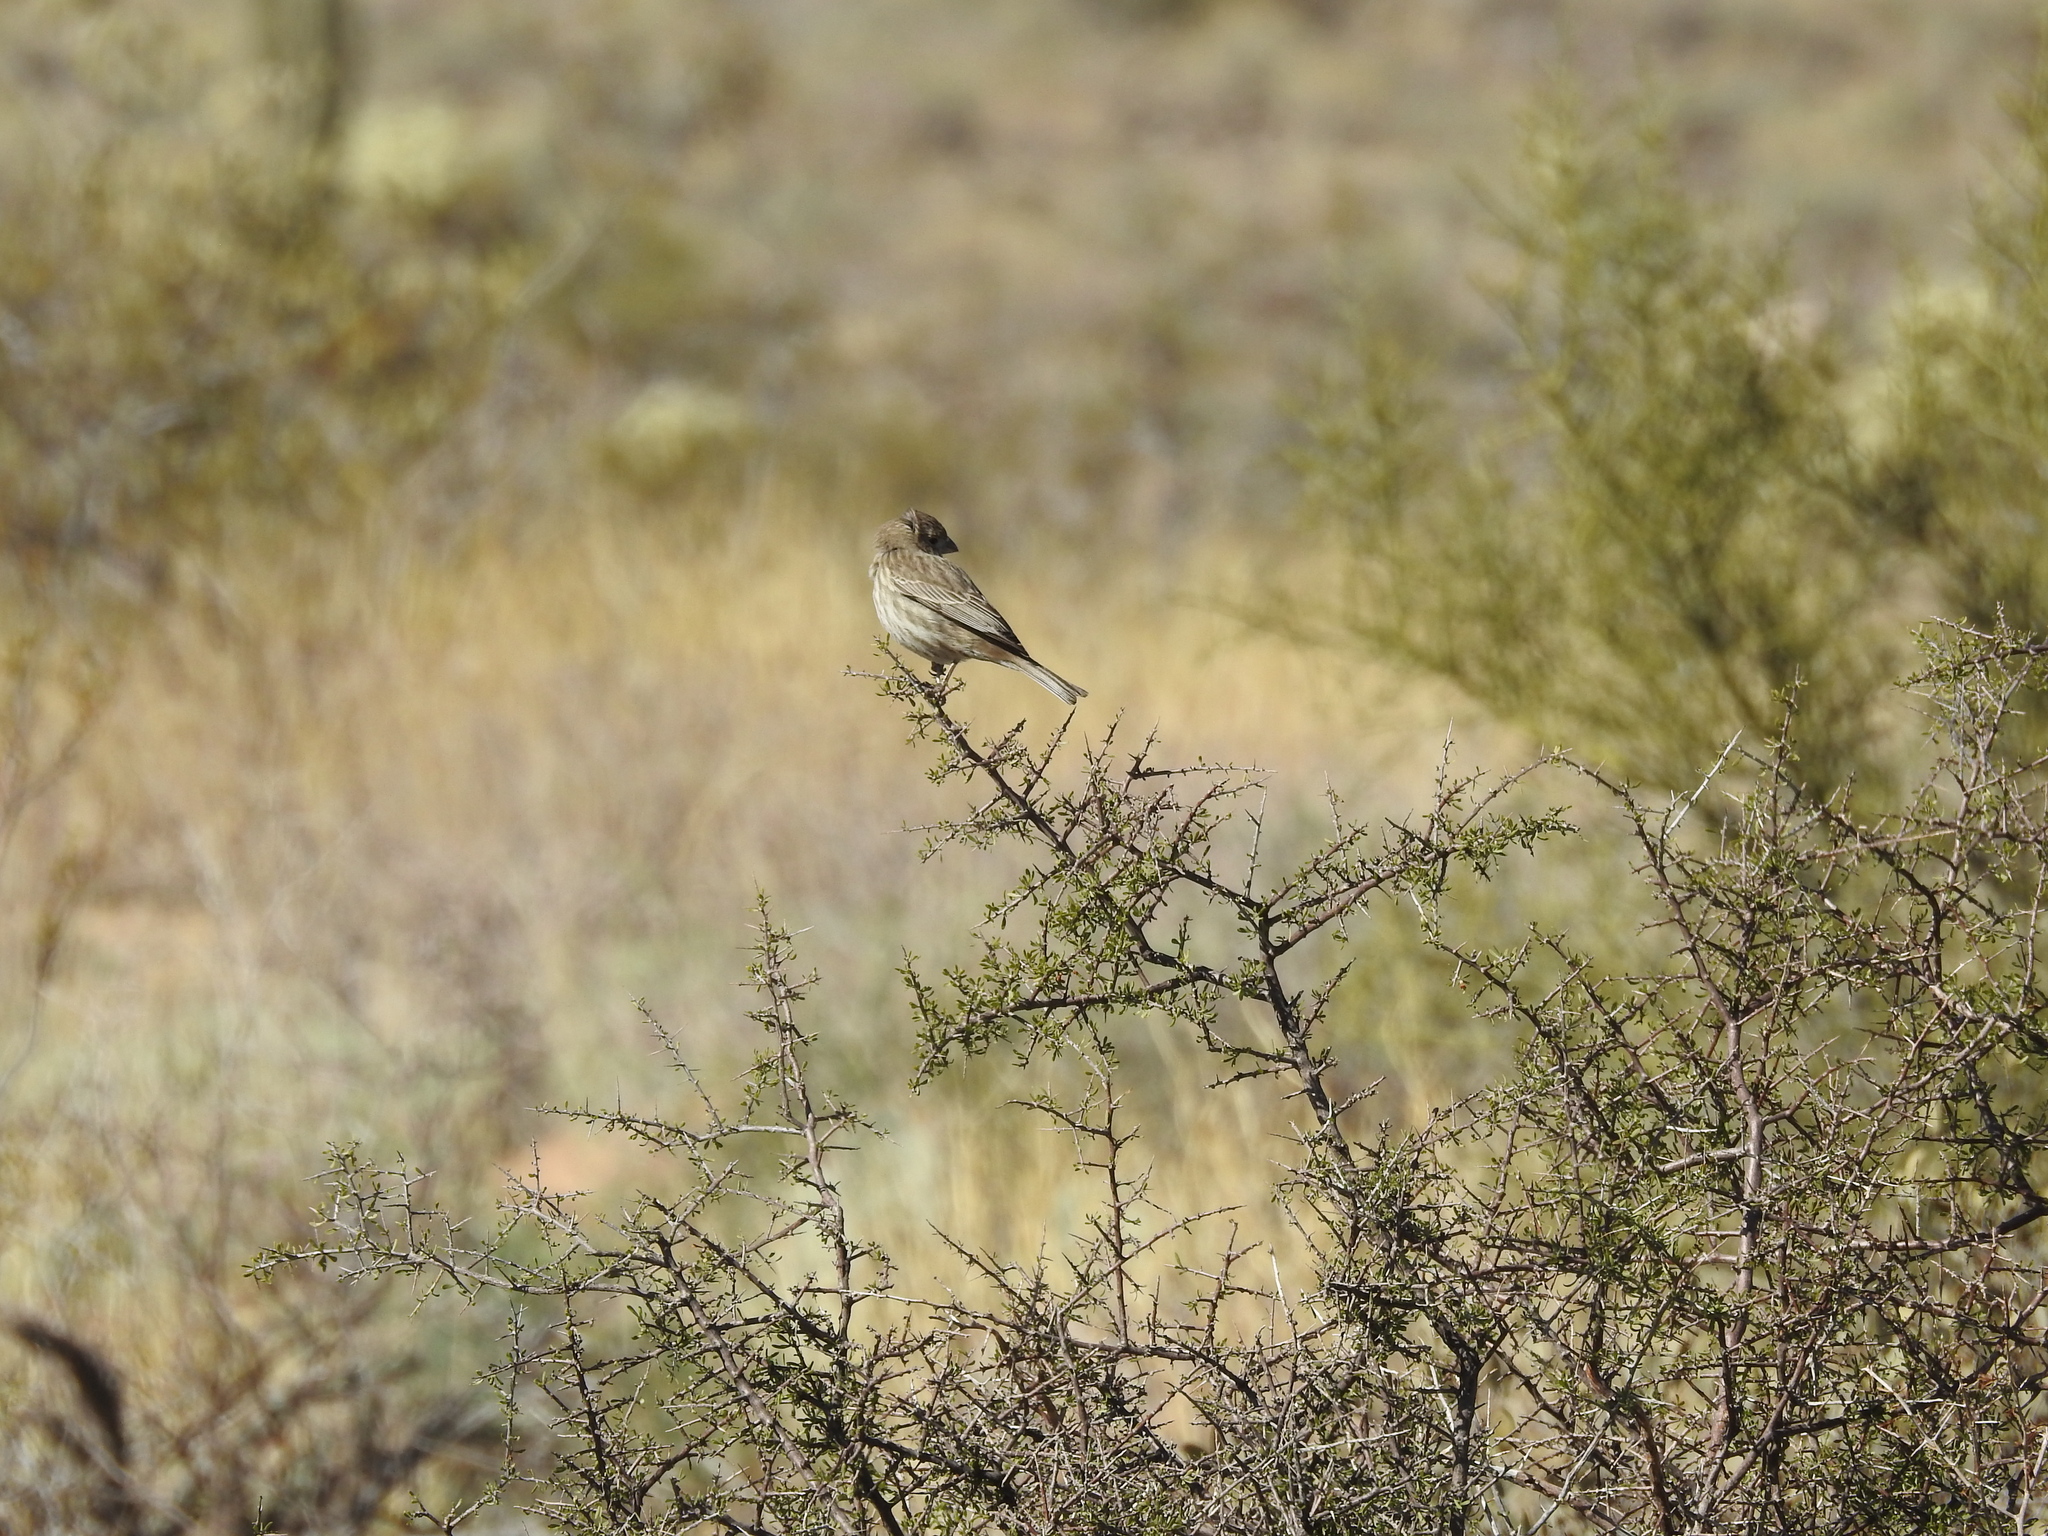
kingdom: Animalia
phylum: Chordata
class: Aves
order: Passeriformes
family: Fringillidae
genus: Haemorhous
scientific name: Haemorhous mexicanus
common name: House finch
